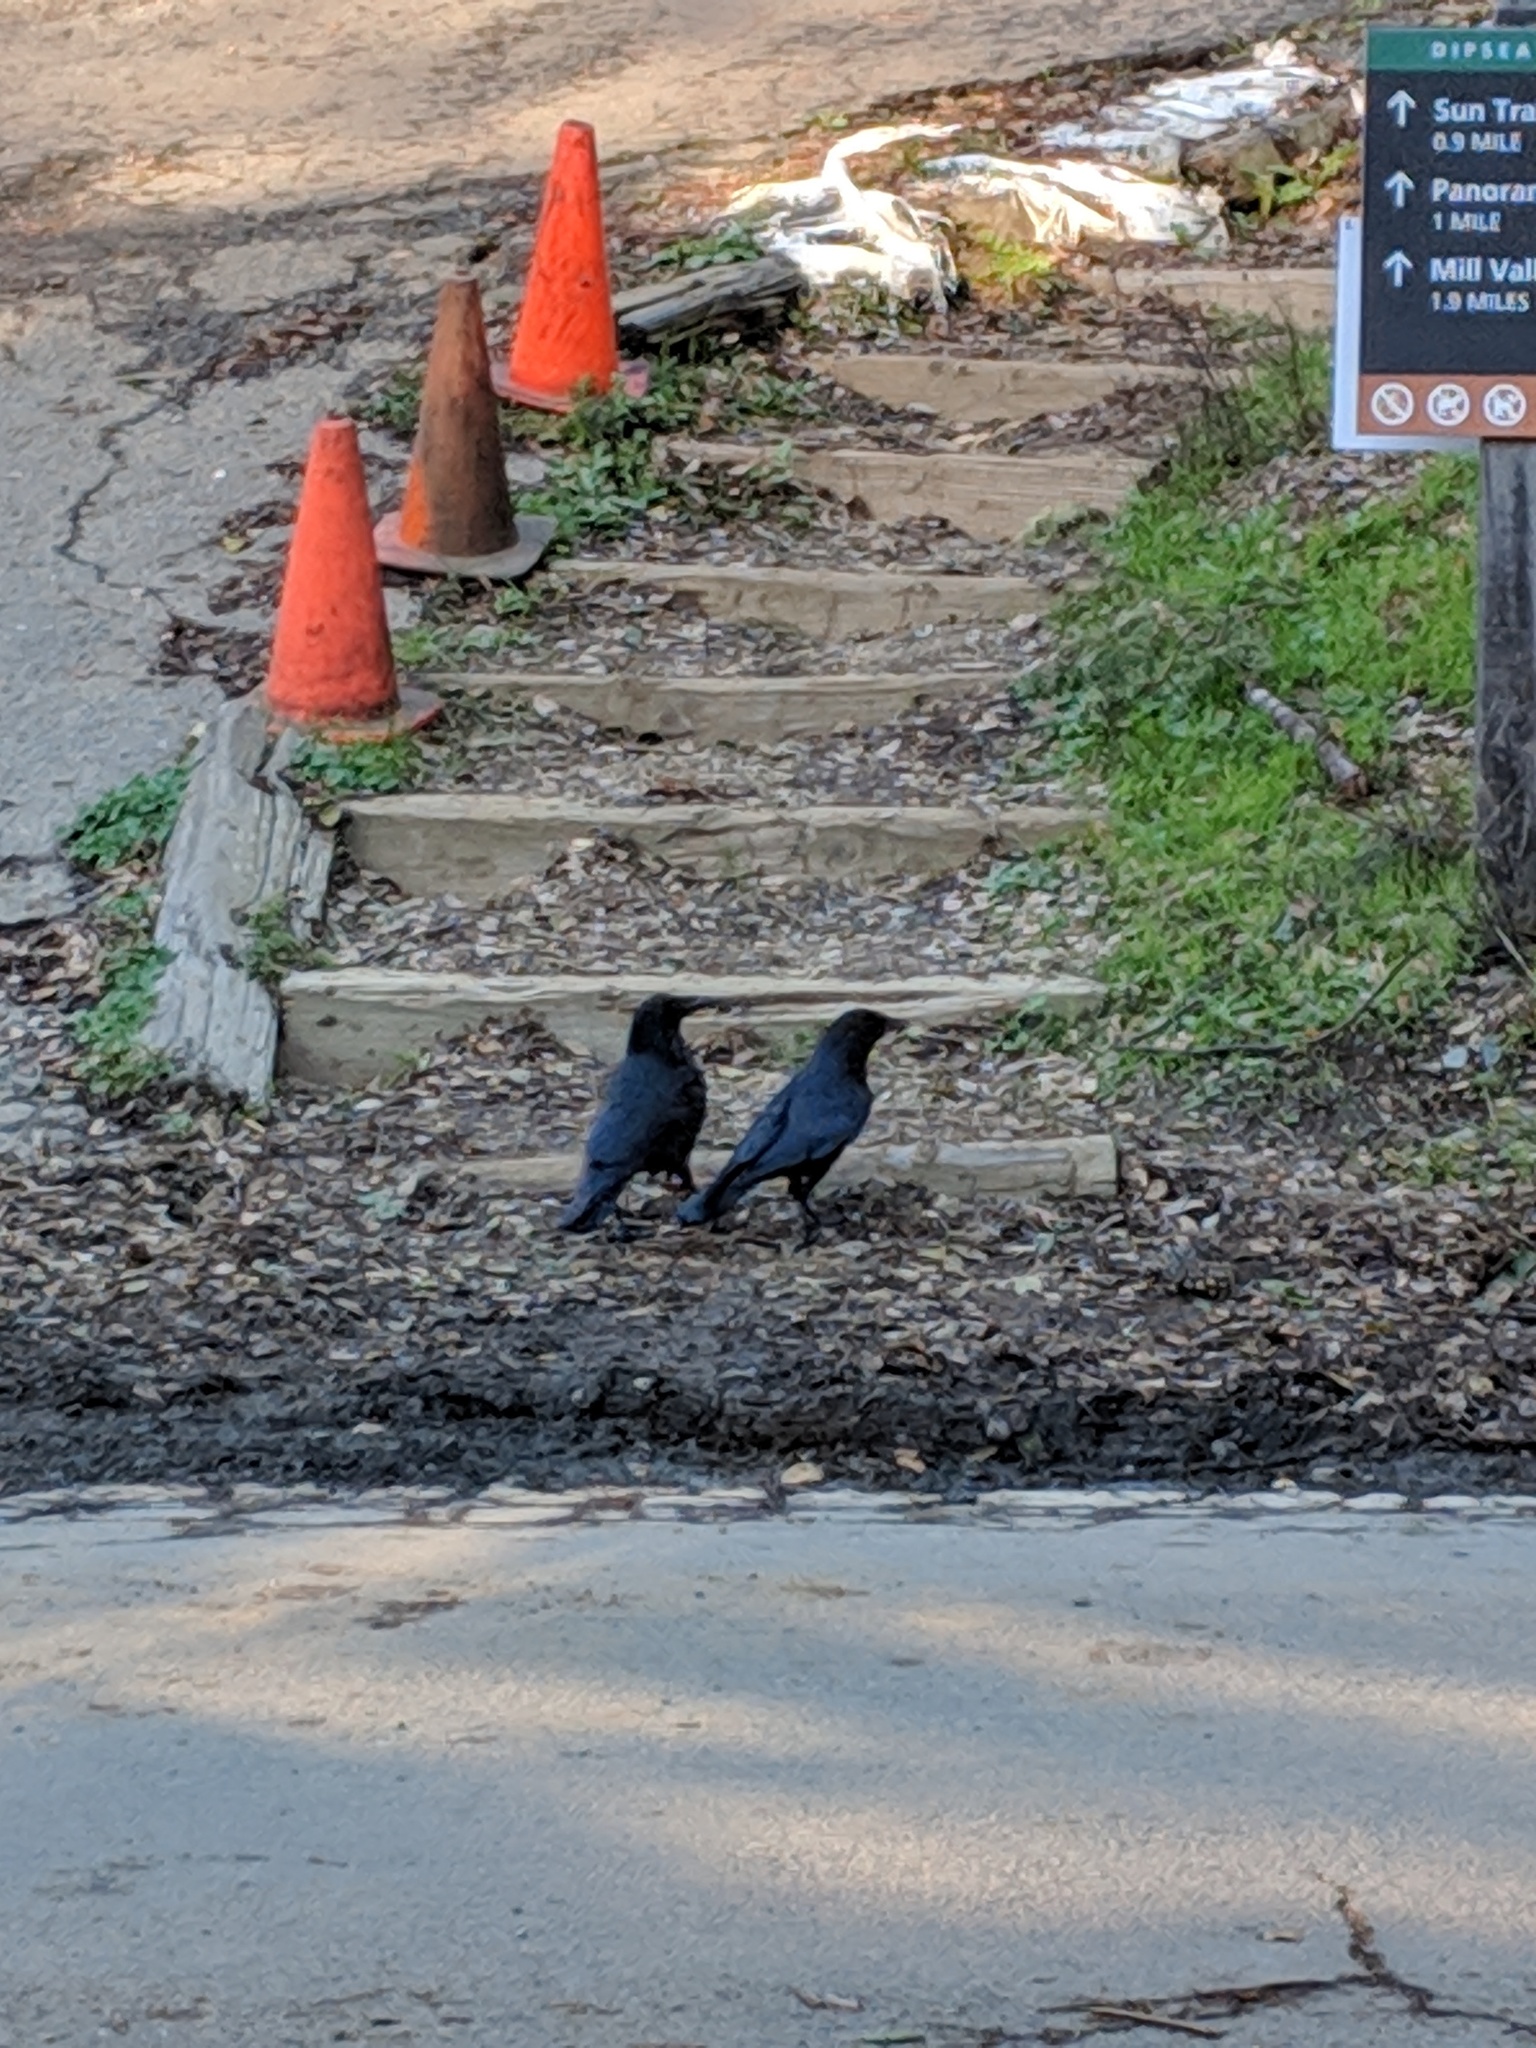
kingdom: Animalia
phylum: Chordata
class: Aves
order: Passeriformes
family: Corvidae
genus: Corvus
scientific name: Corvus brachyrhynchos
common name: American crow
